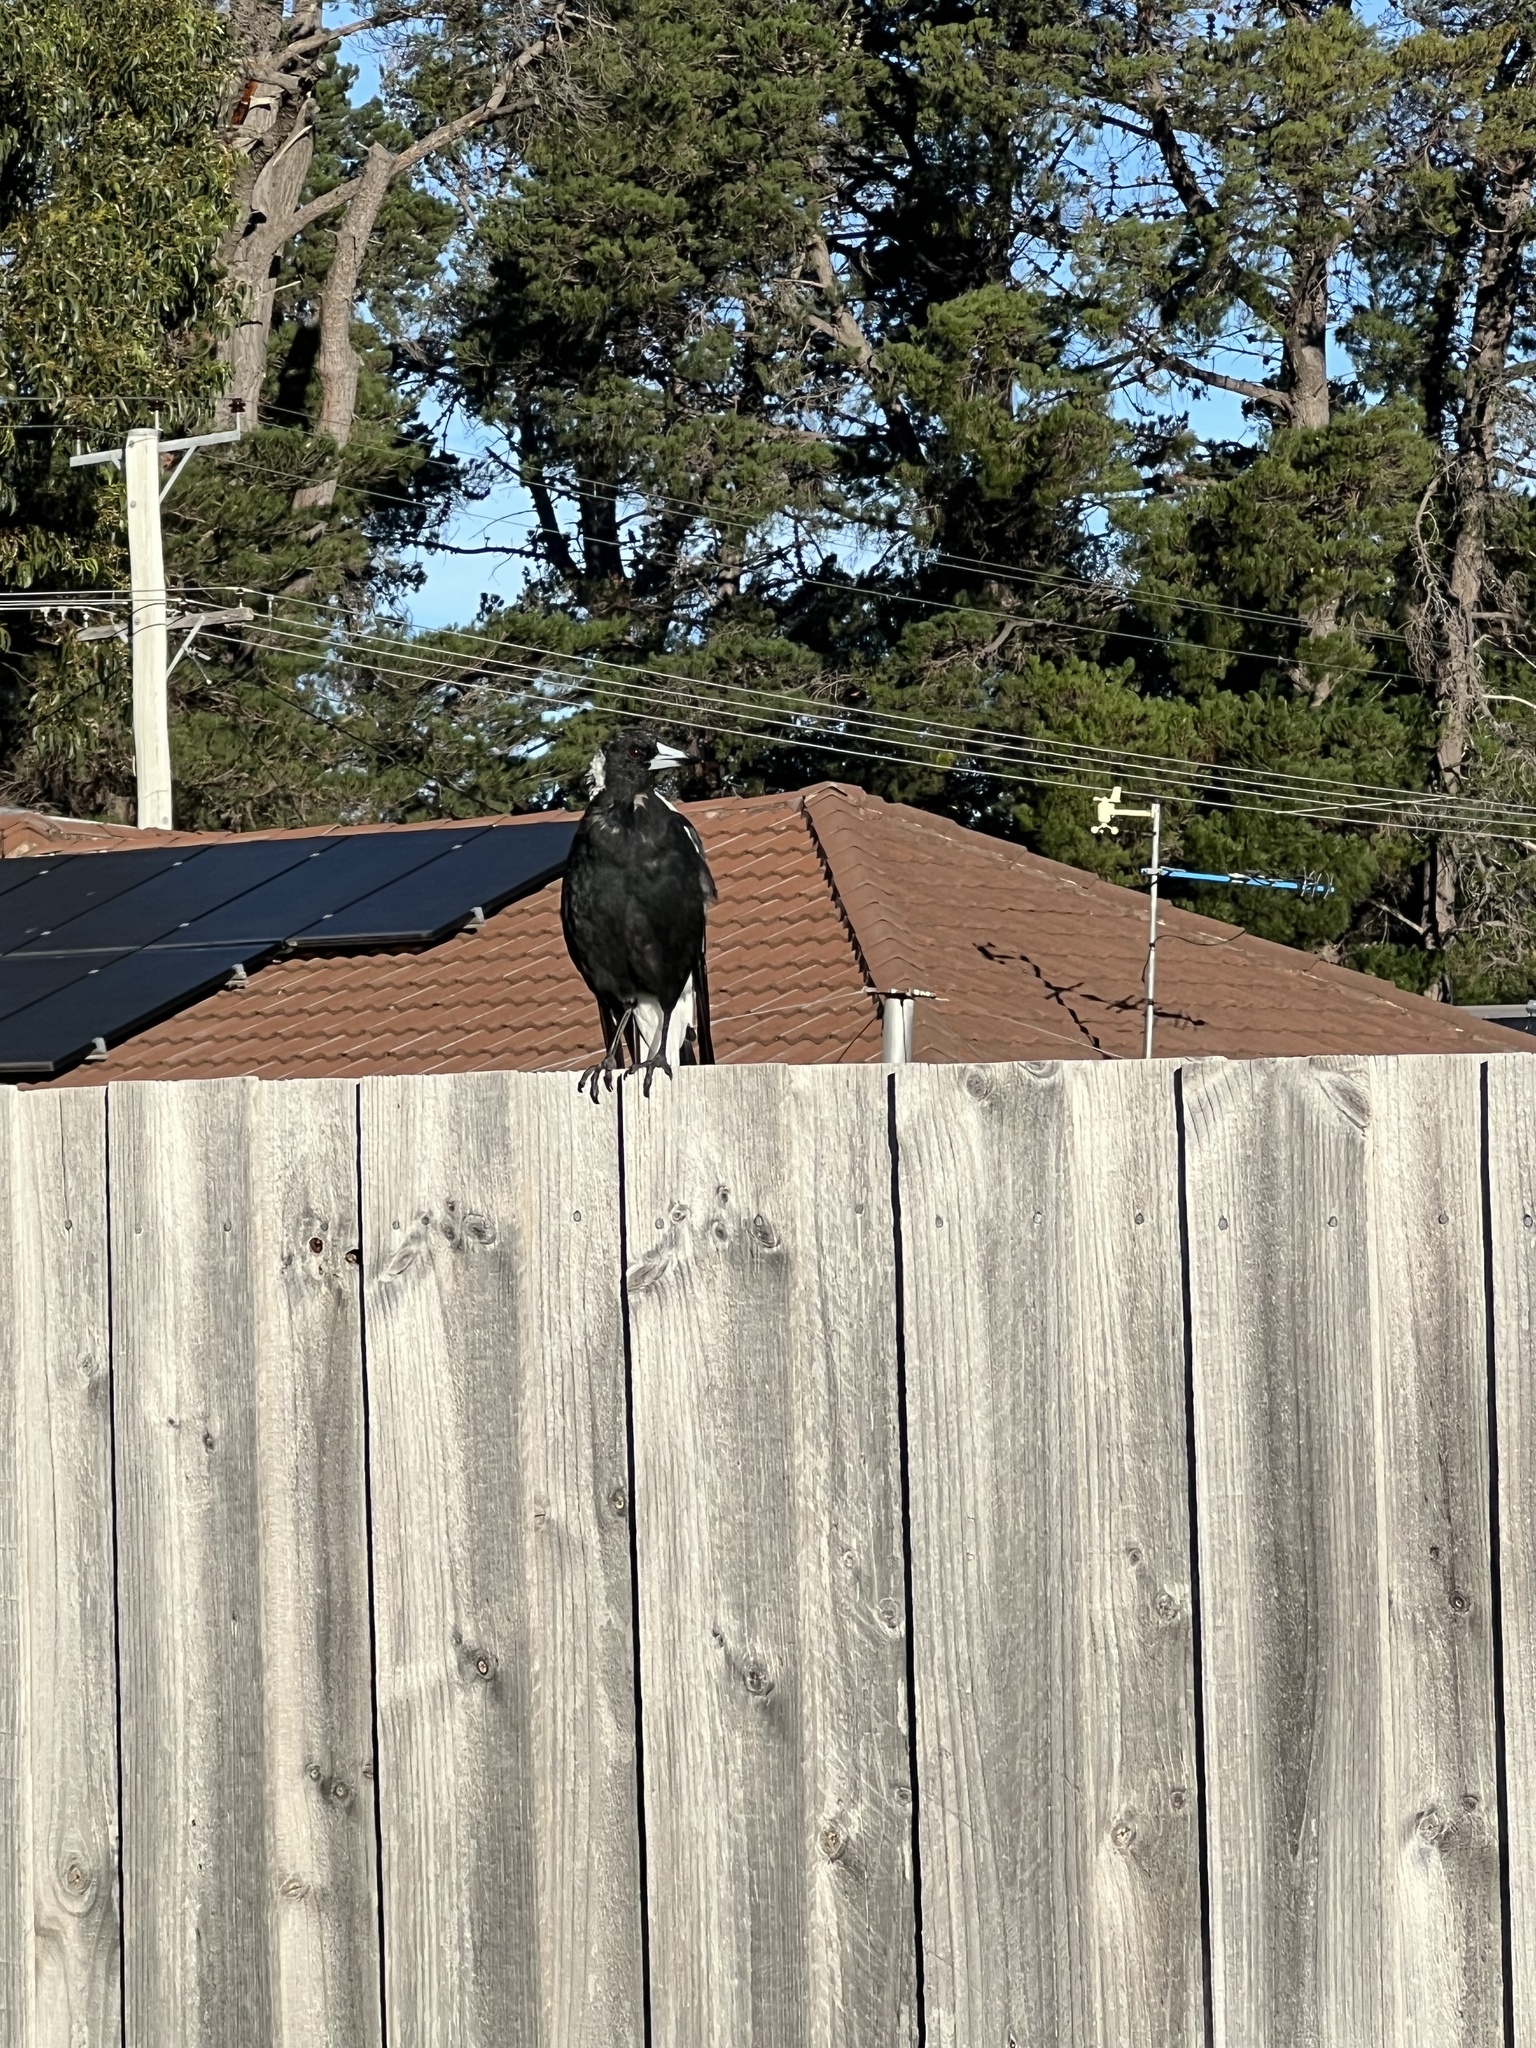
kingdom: Animalia
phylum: Chordata
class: Aves
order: Passeriformes
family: Cracticidae
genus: Gymnorhina
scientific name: Gymnorhina tibicen
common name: Australian magpie
